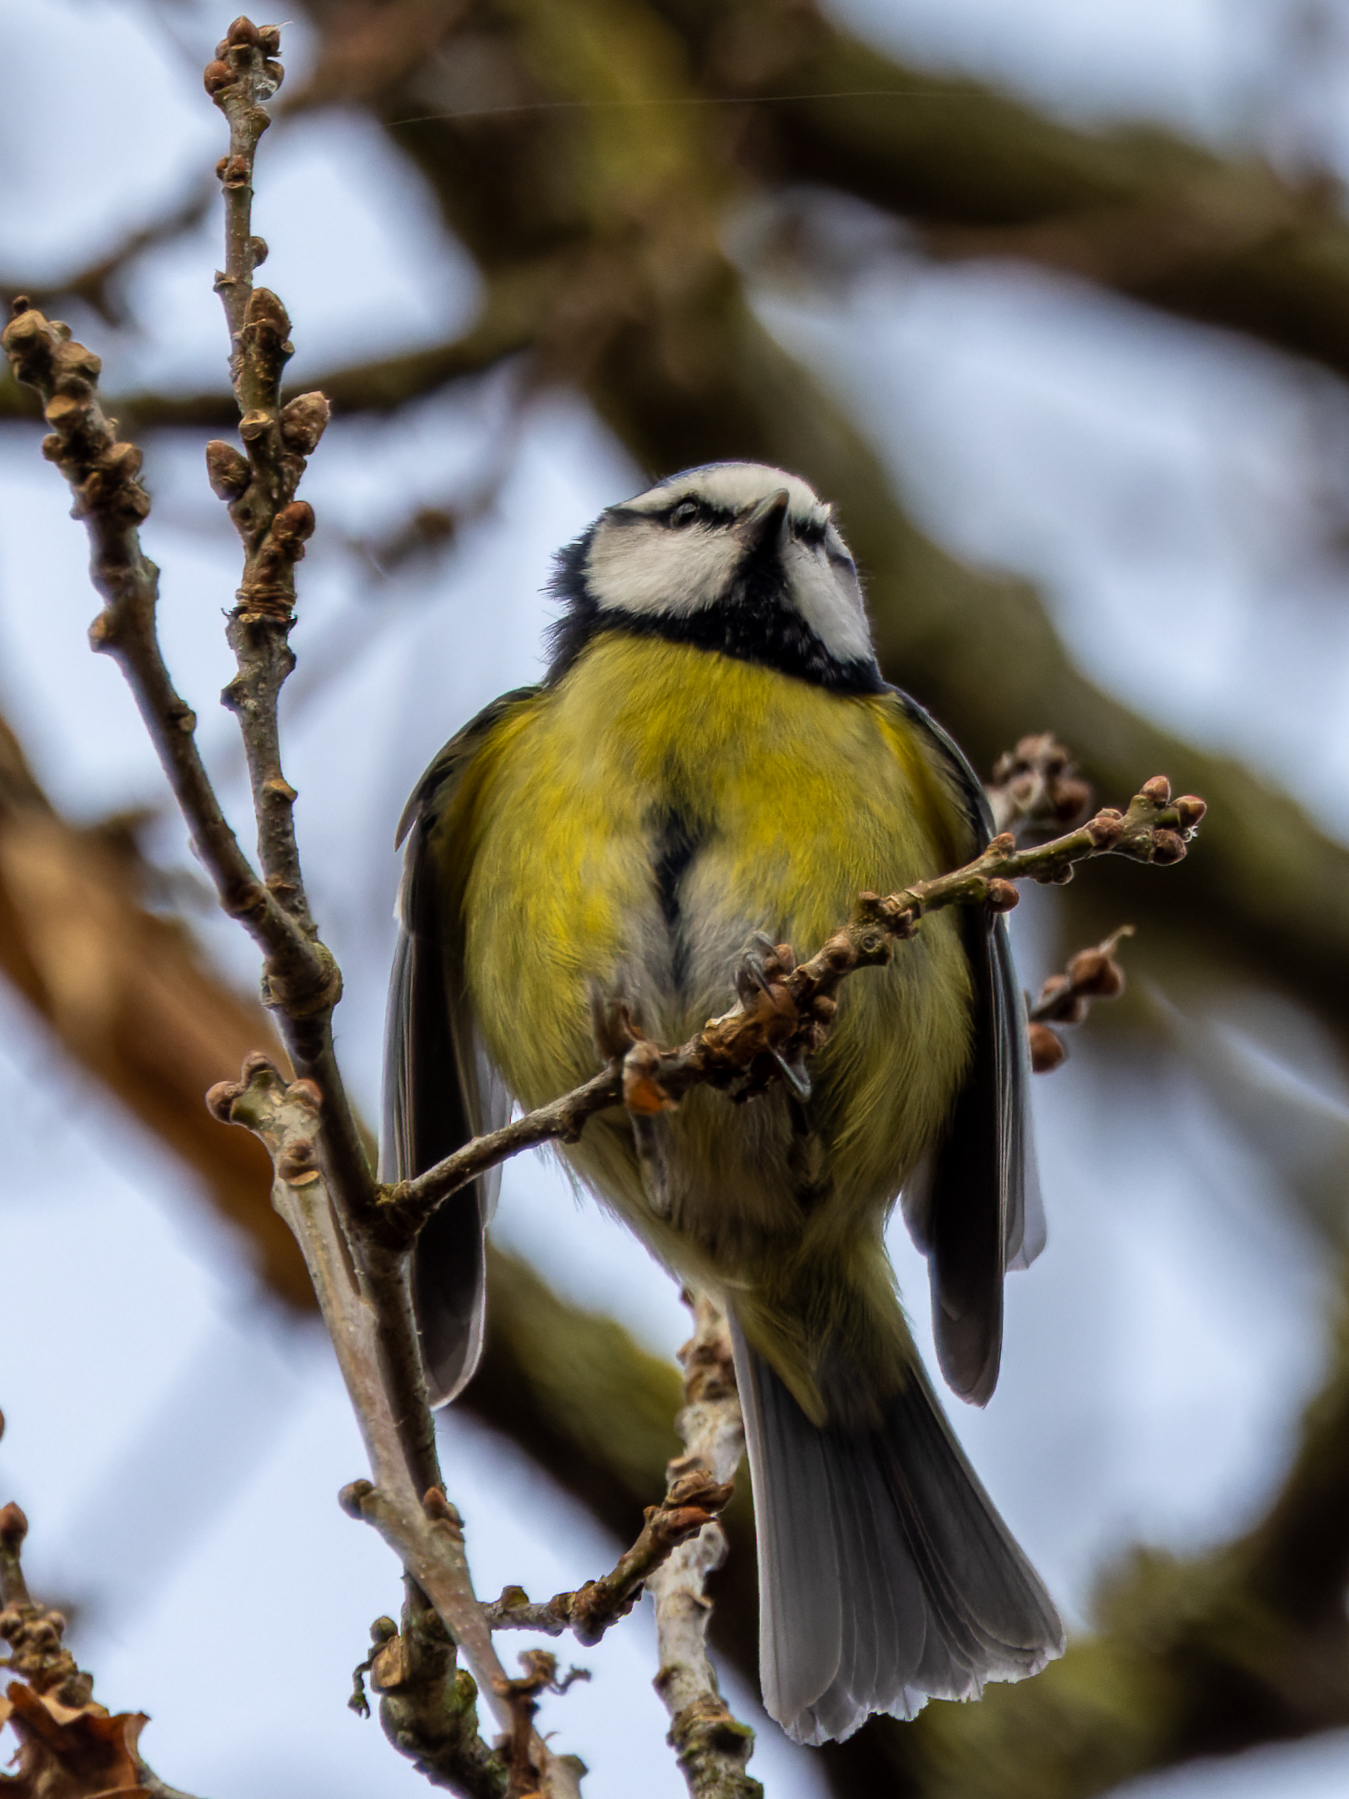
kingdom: Animalia
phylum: Chordata
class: Aves
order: Passeriformes
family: Paridae
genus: Cyanistes
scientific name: Cyanistes caeruleus
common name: Eurasian blue tit
